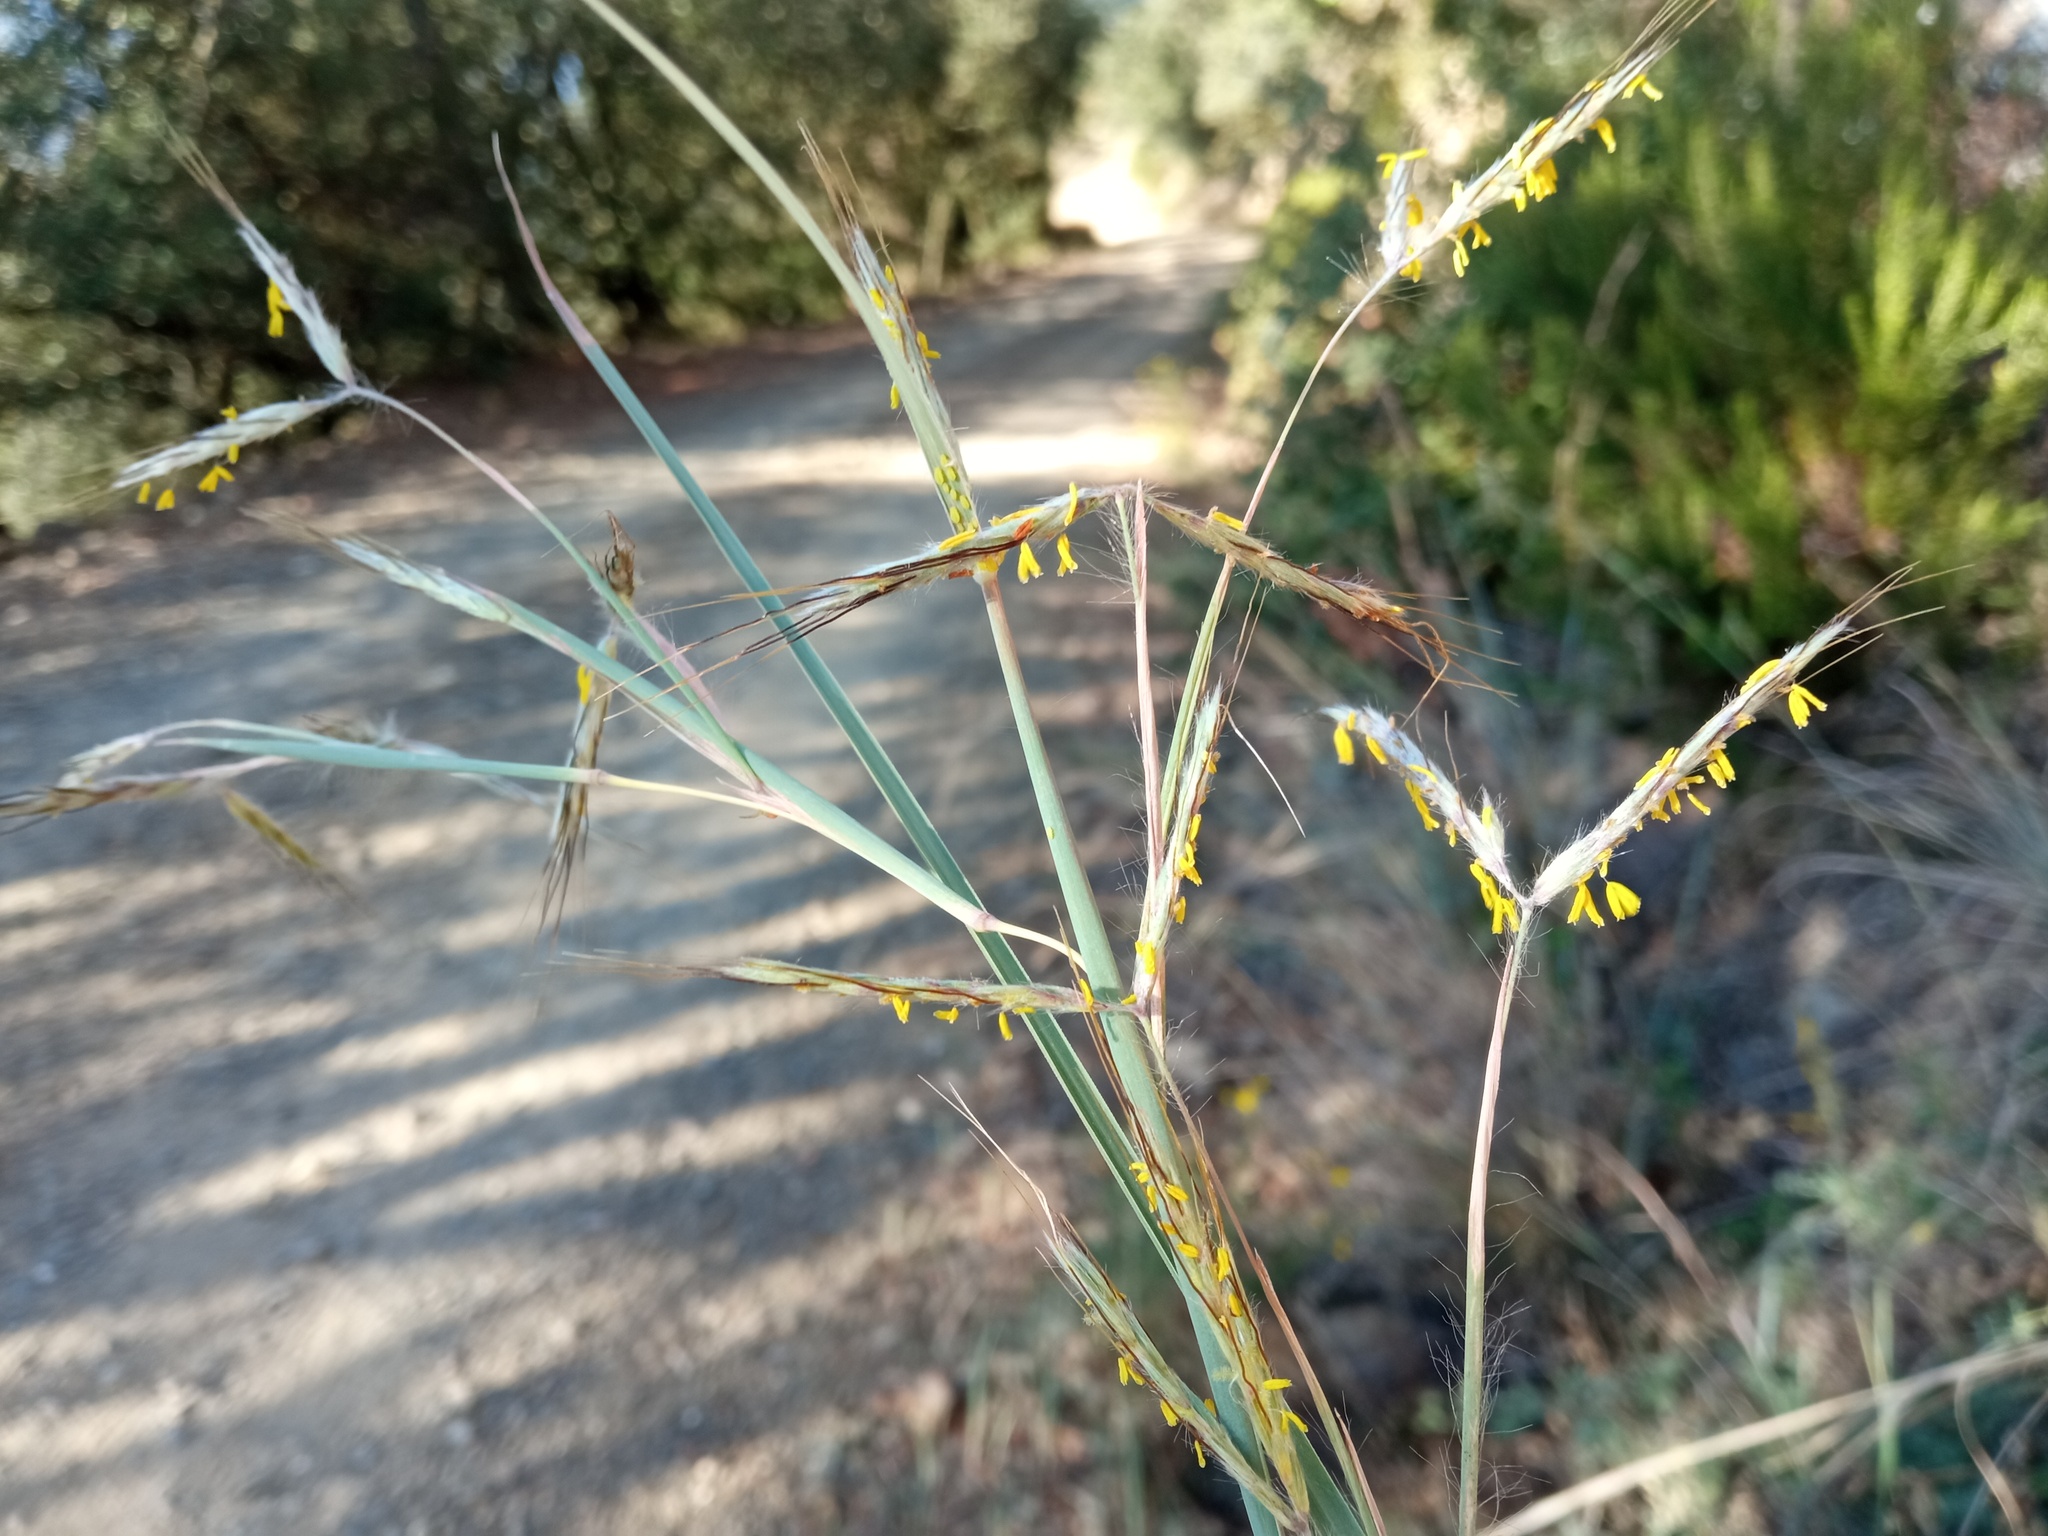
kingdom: Plantae
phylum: Tracheophyta
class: Liliopsida
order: Poales
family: Poaceae
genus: Hyparrhenia
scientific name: Hyparrhenia hirta
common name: Thatching grass
